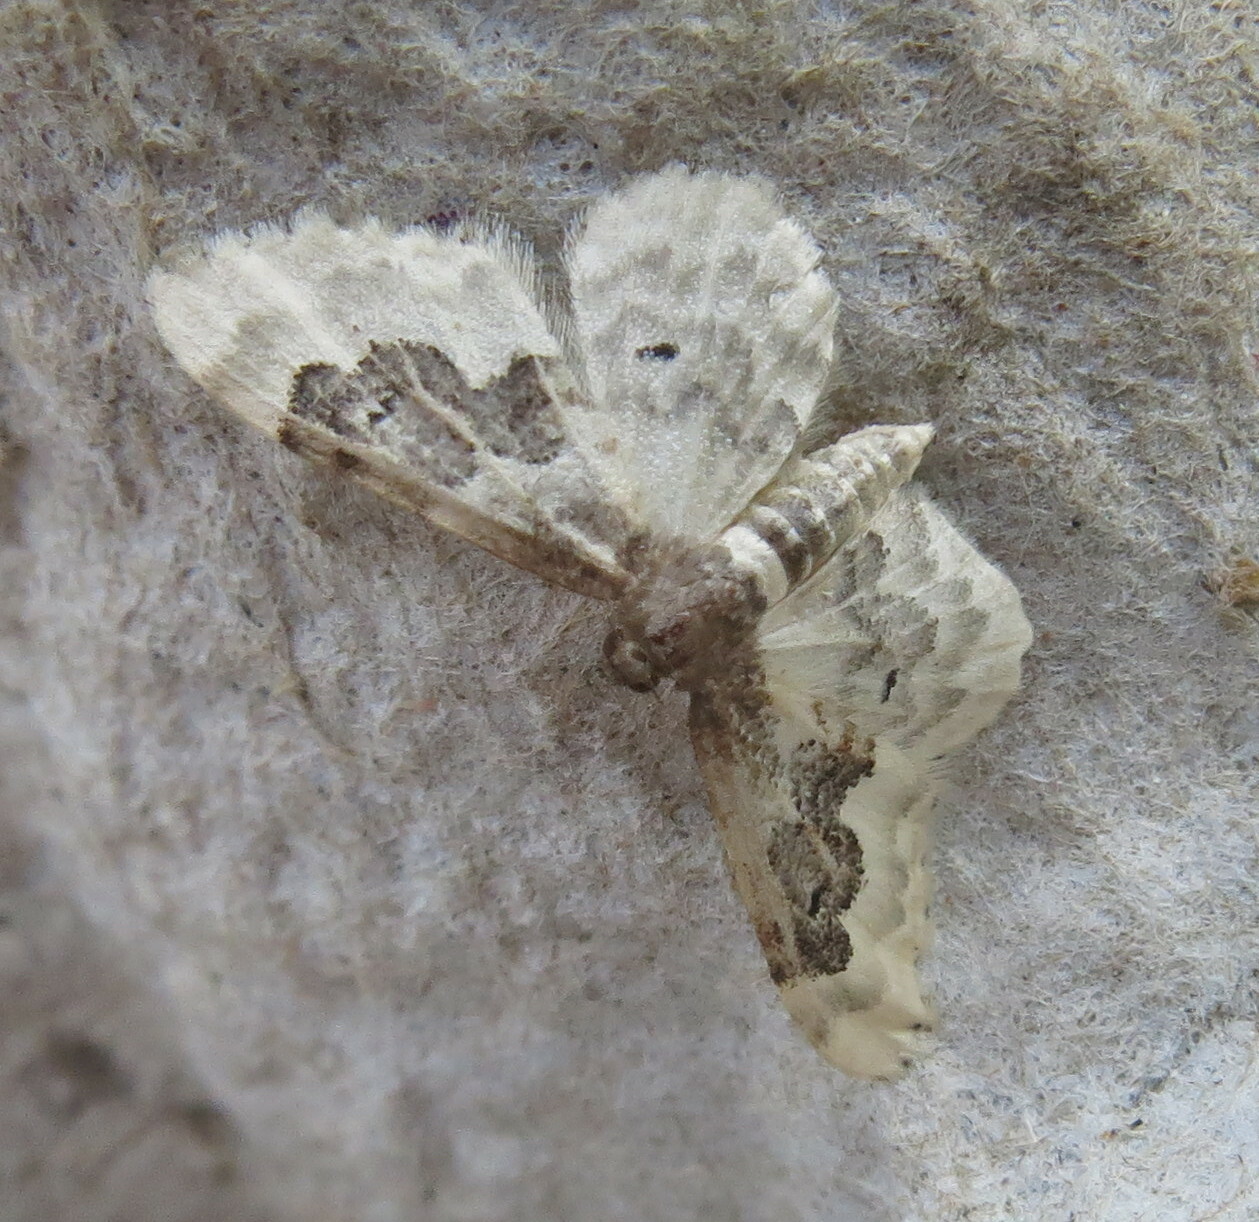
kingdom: Animalia
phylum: Arthropoda
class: Insecta
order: Lepidoptera
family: Geometridae
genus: Idaea
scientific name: Idaea rusticata
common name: Least carpet
